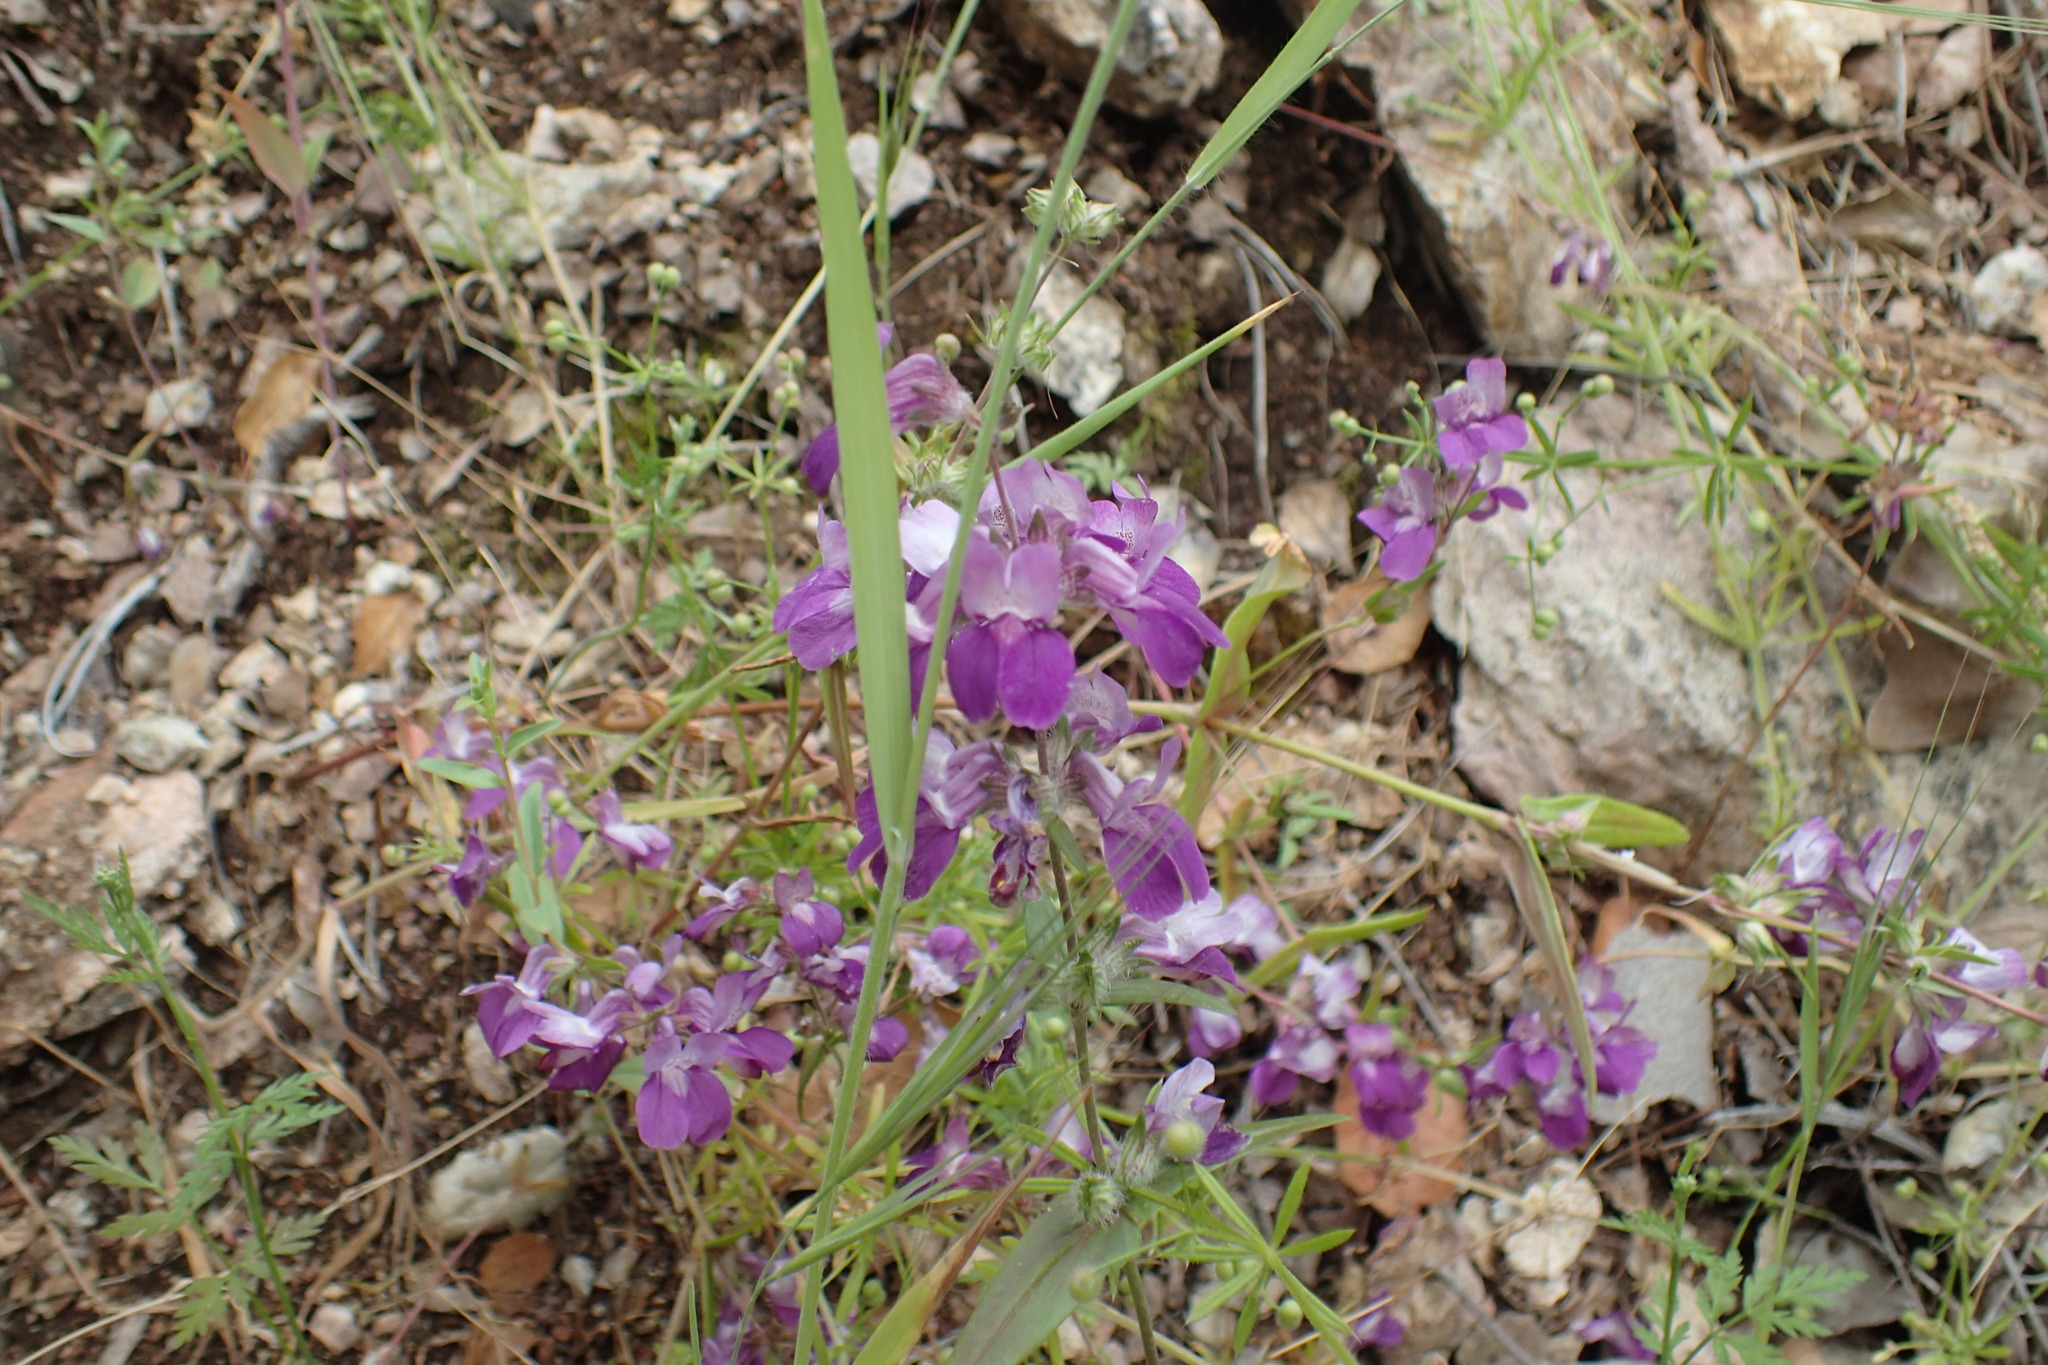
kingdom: Plantae
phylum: Tracheophyta
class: Magnoliopsida
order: Lamiales
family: Plantaginaceae
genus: Collinsia
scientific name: Collinsia heterophylla
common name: Chinese-houses
